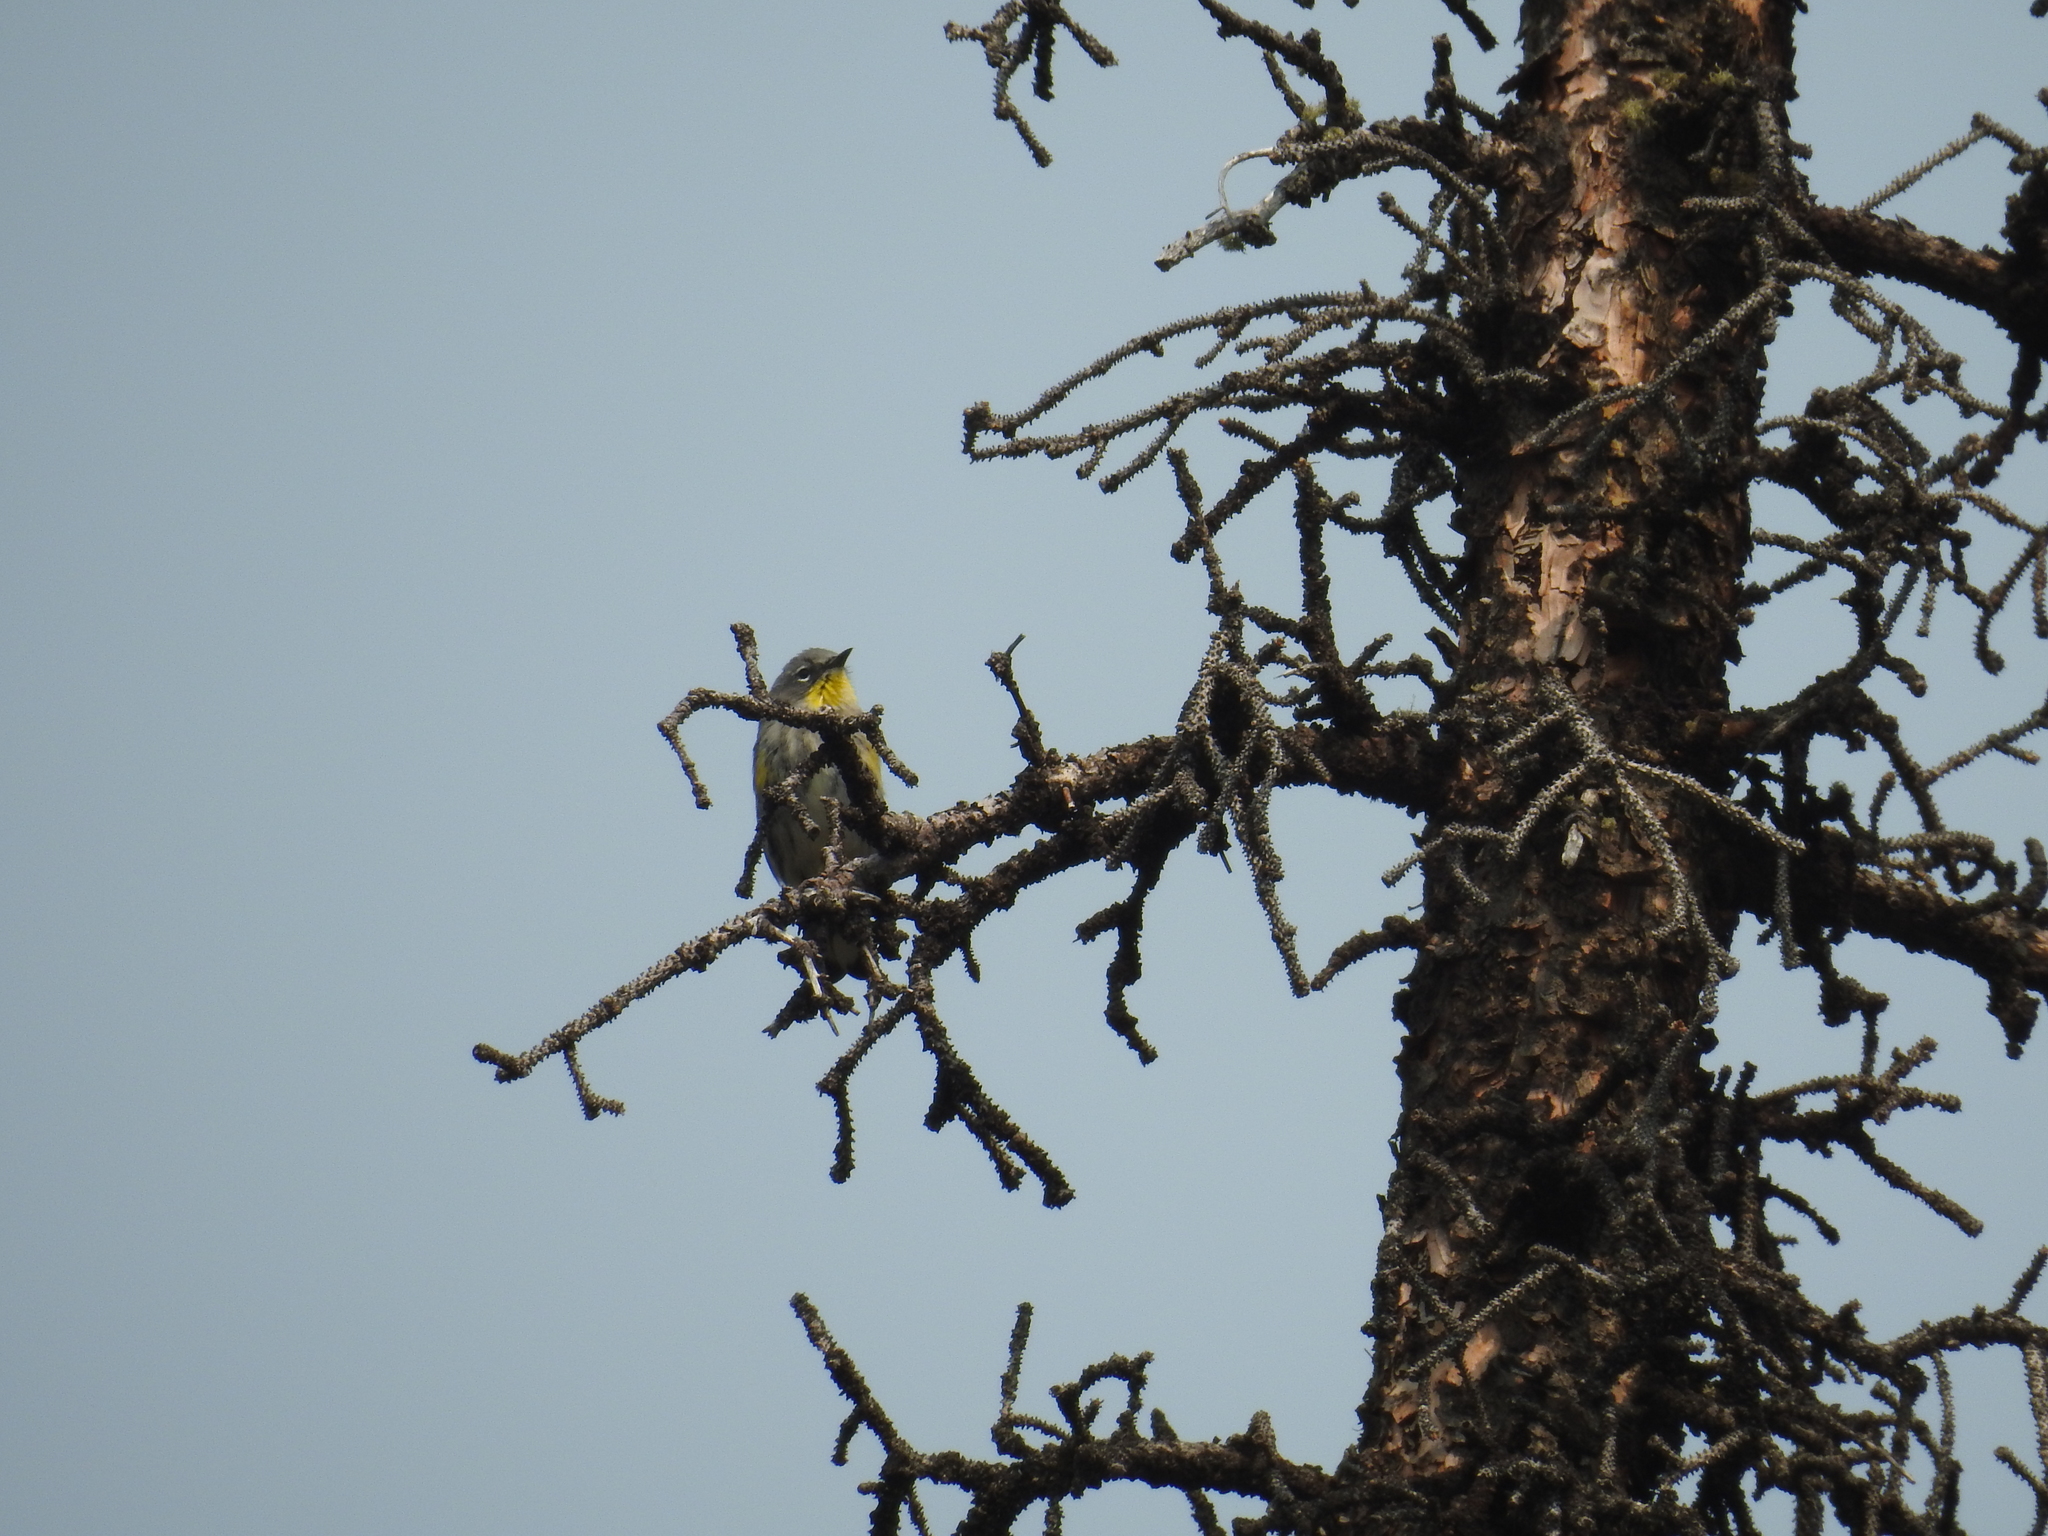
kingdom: Animalia
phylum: Chordata
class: Aves
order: Passeriformes
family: Parulidae
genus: Setophaga
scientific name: Setophaga auduboni
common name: Audubon's warbler
